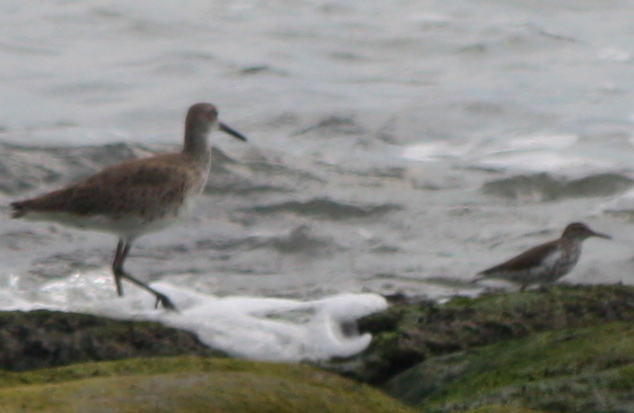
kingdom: Animalia
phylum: Chordata
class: Aves
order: Charadriiformes
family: Scolopacidae
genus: Actitis
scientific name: Actitis macularius
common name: Spotted sandpiper
